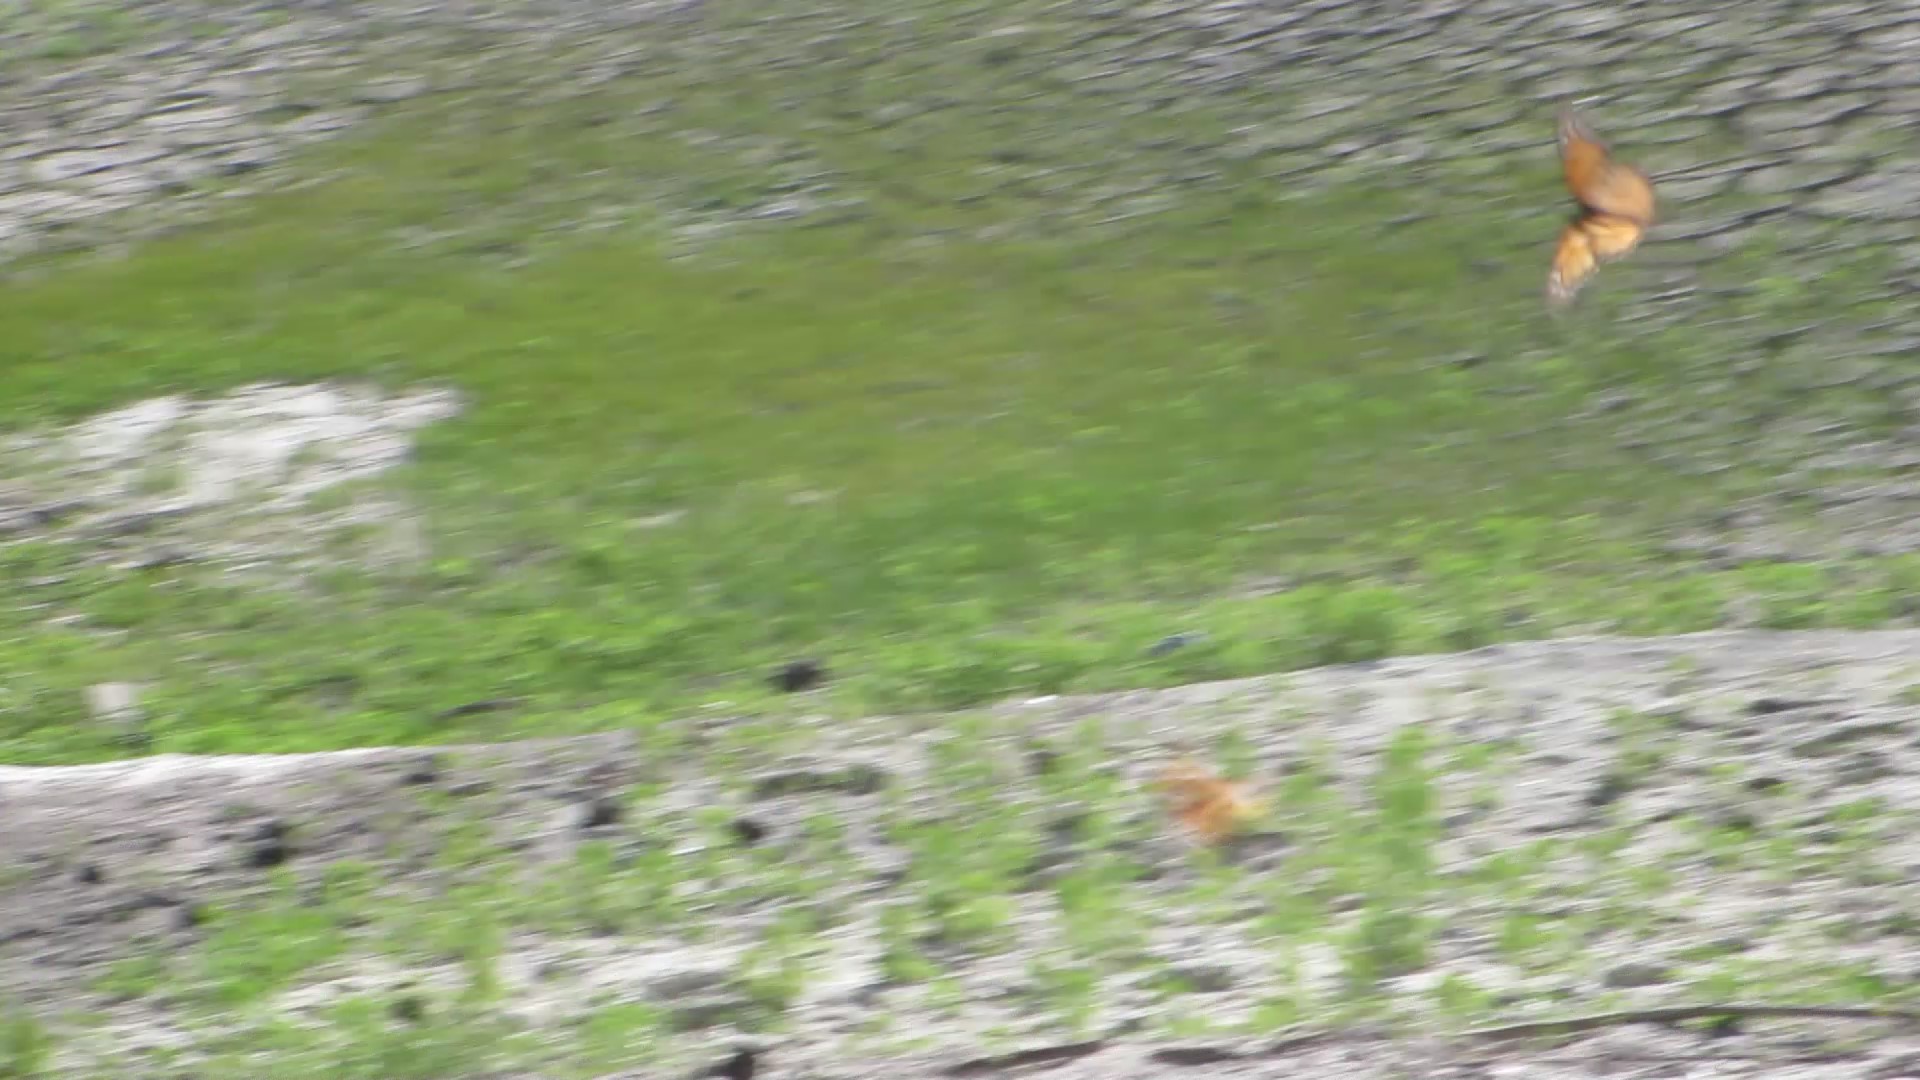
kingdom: Animalia
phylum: Arthropoda
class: Insecta
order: Lepidoptera
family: Nymphalidae
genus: Danaus
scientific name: Danaus plexippus
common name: Monarch
